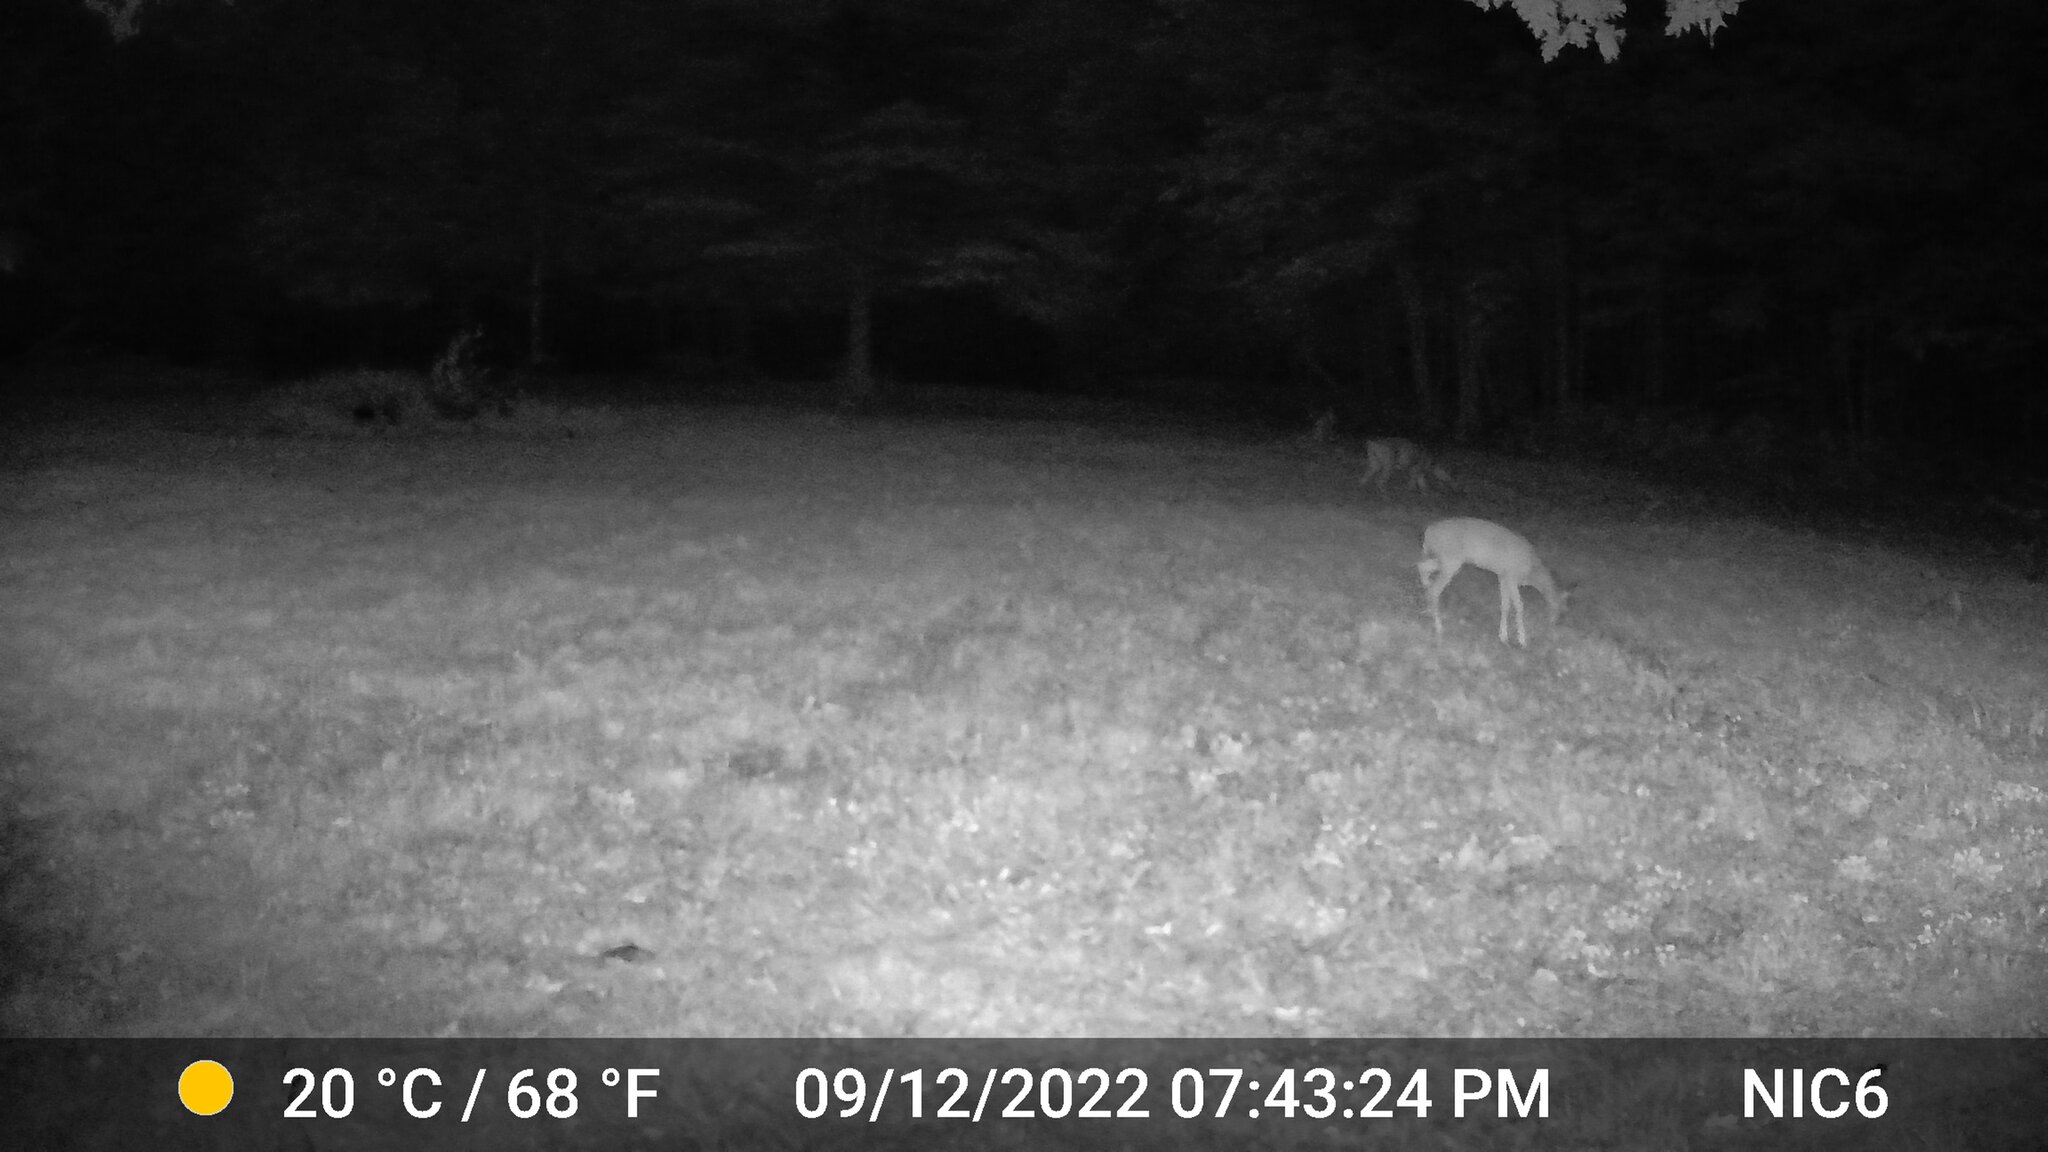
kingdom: Animalia
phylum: Chordata
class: Mammalia
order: Artiodactyla
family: Cervidae
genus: Odocoileus
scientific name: Odocoileus virginianus
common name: White-tailed deer
